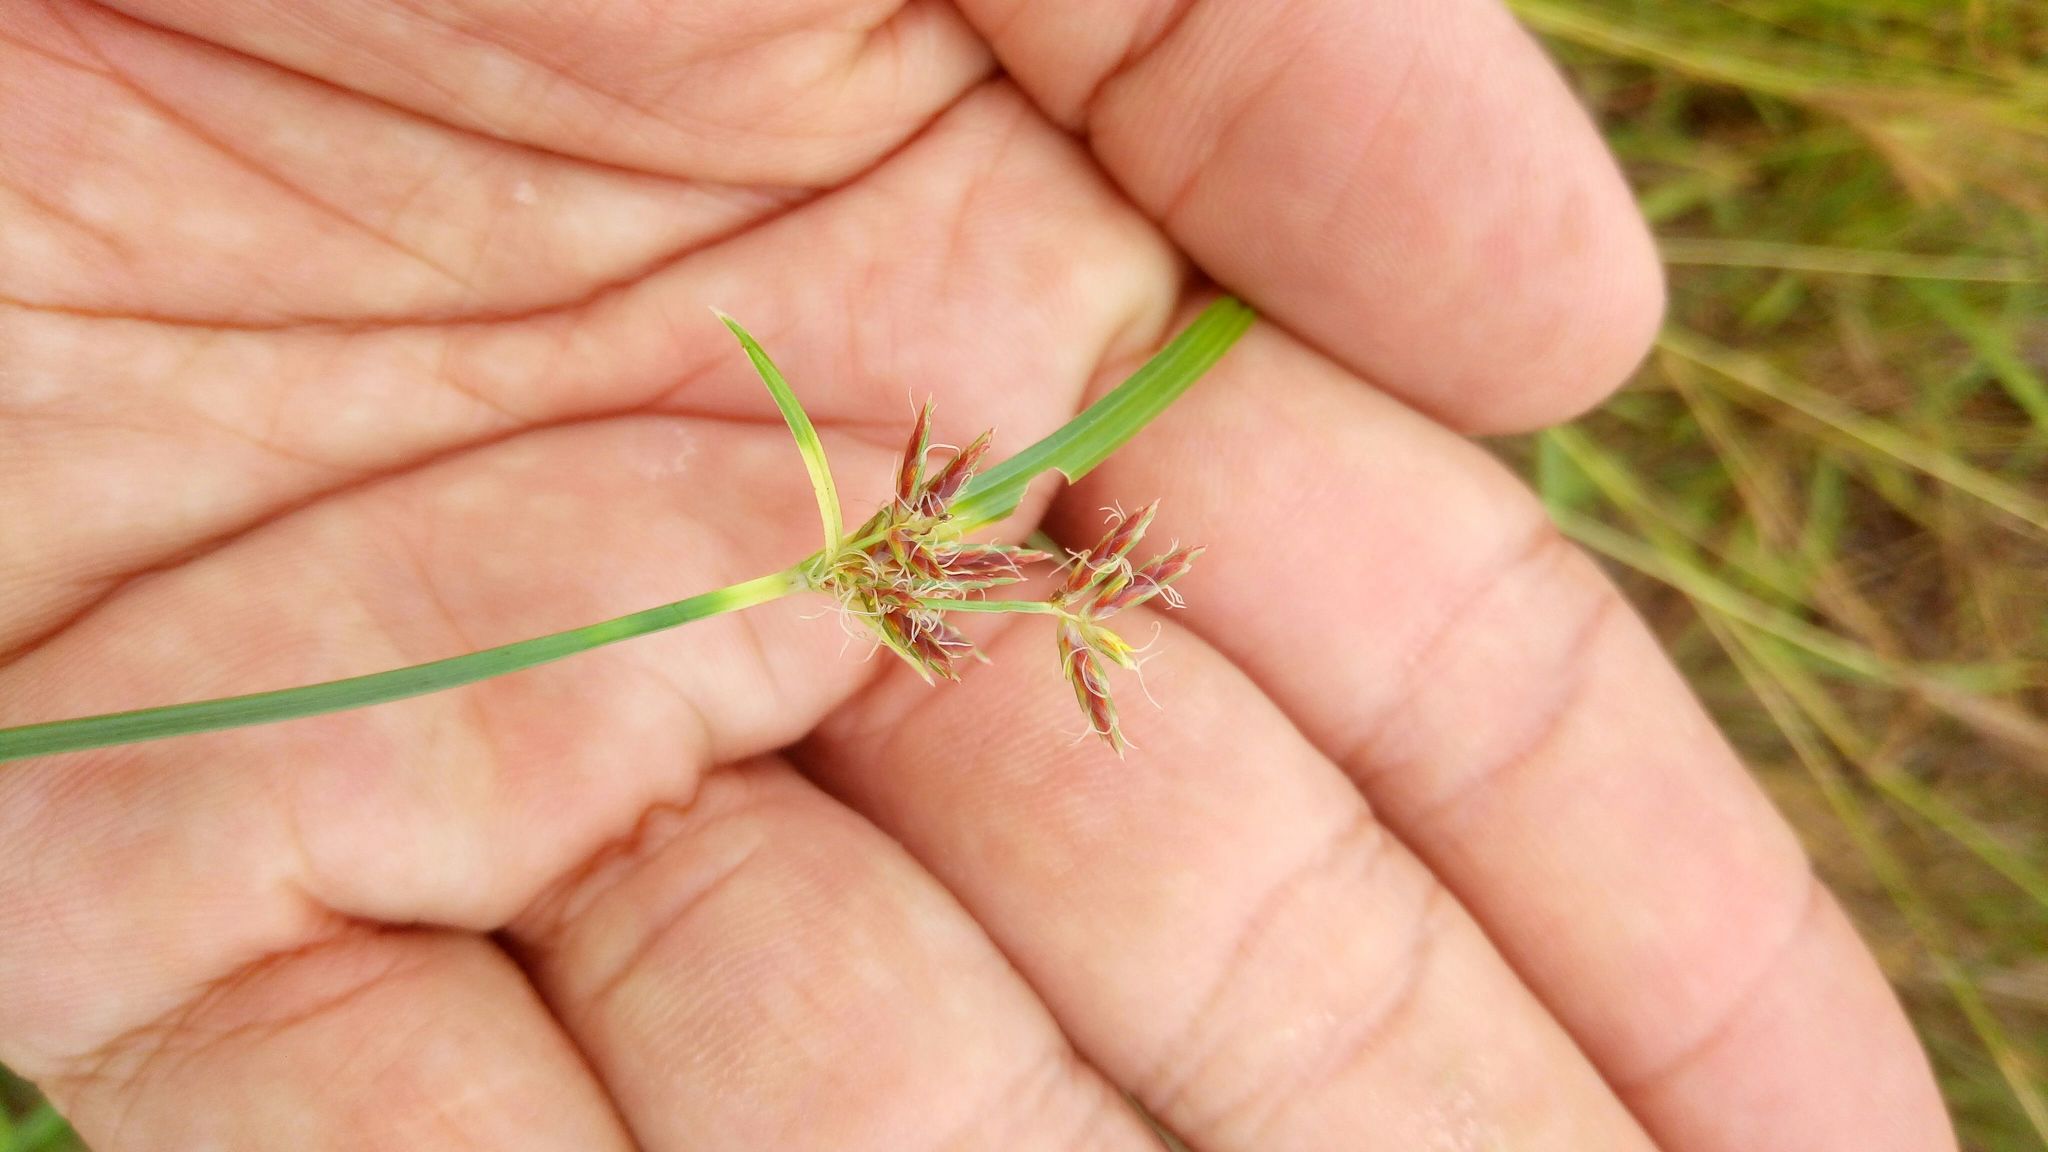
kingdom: Plantae
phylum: Tracheophyta
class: Liliopsida
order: Poales
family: Cyperaceae
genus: Cyperus
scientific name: Cyperus rotundus
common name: Nutgrass
